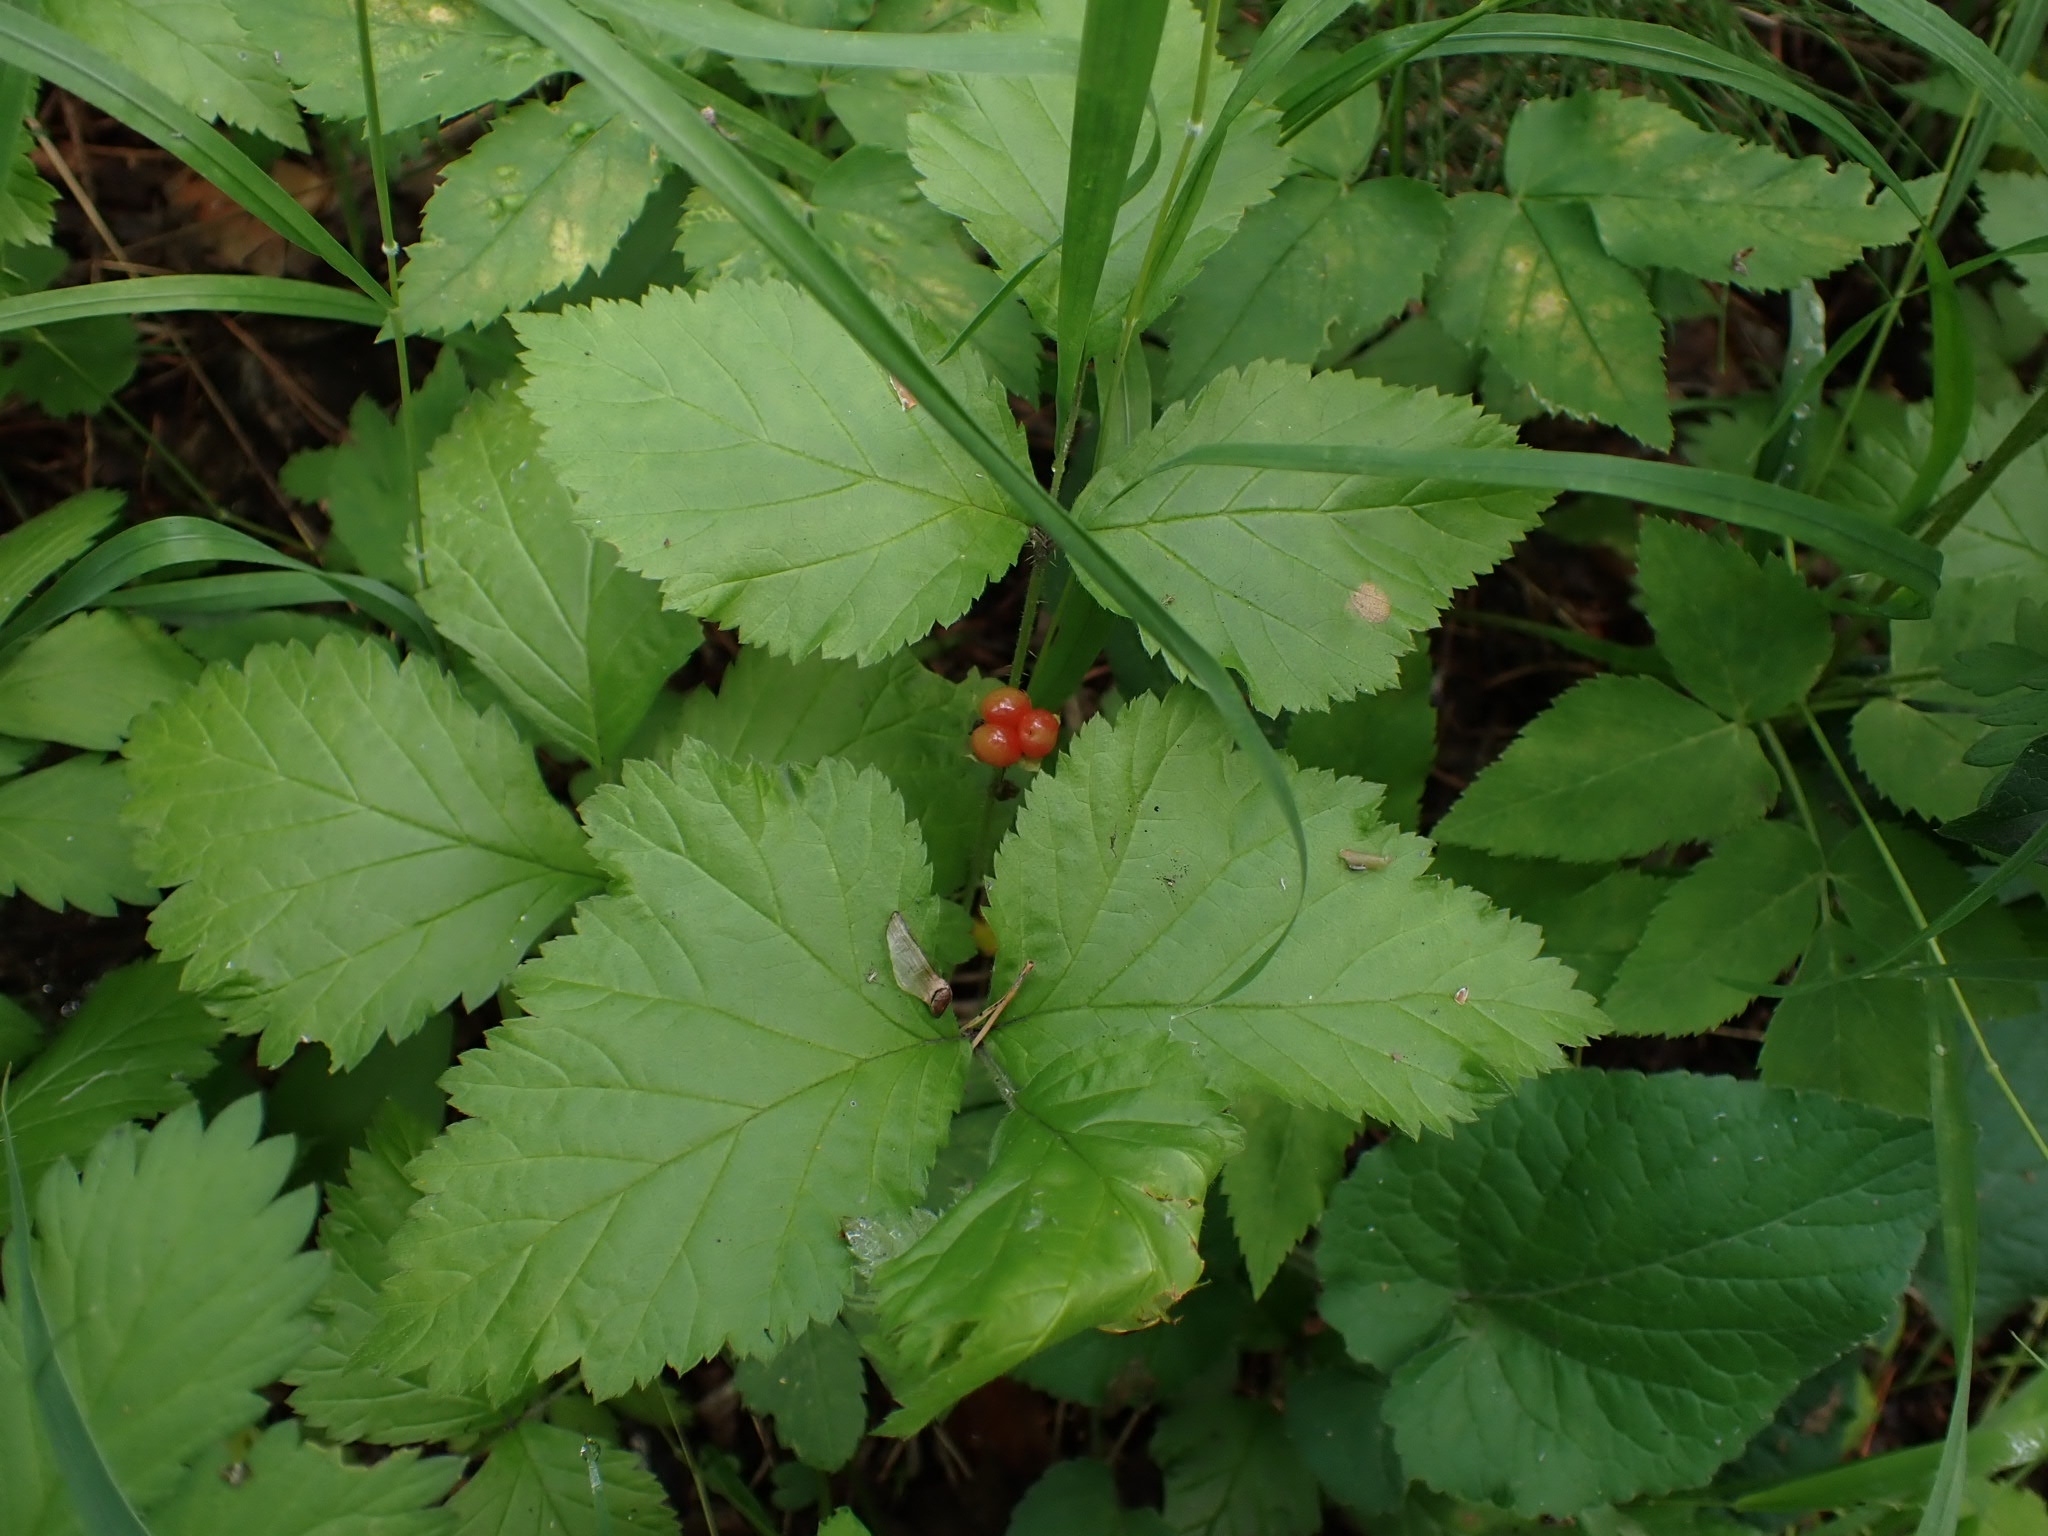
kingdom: Plantae
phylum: Tracheophyta
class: Magnoliopsida
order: Rosales
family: Rosaceae
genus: Rubus
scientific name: Rubus saxatilis
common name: Stone bramble
